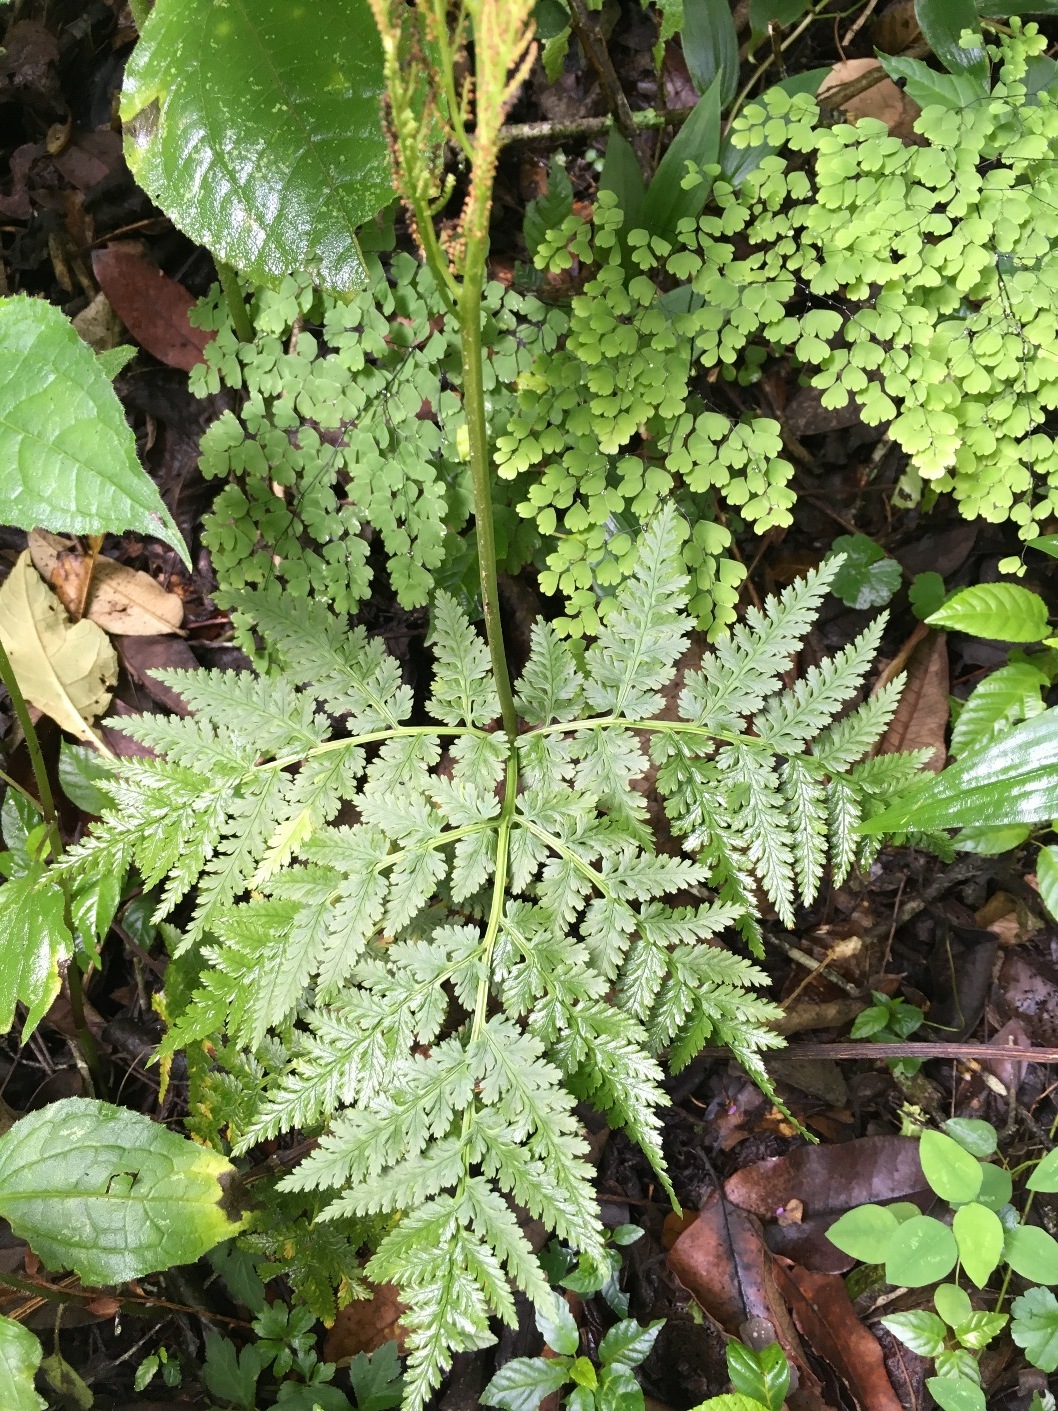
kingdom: Plantae
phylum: Tracheophyta
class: Polypodiopsida
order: Ophioglossales
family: Ophioglossaceae
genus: Botrypus
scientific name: Botrypus virginianus
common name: Common grapefern
